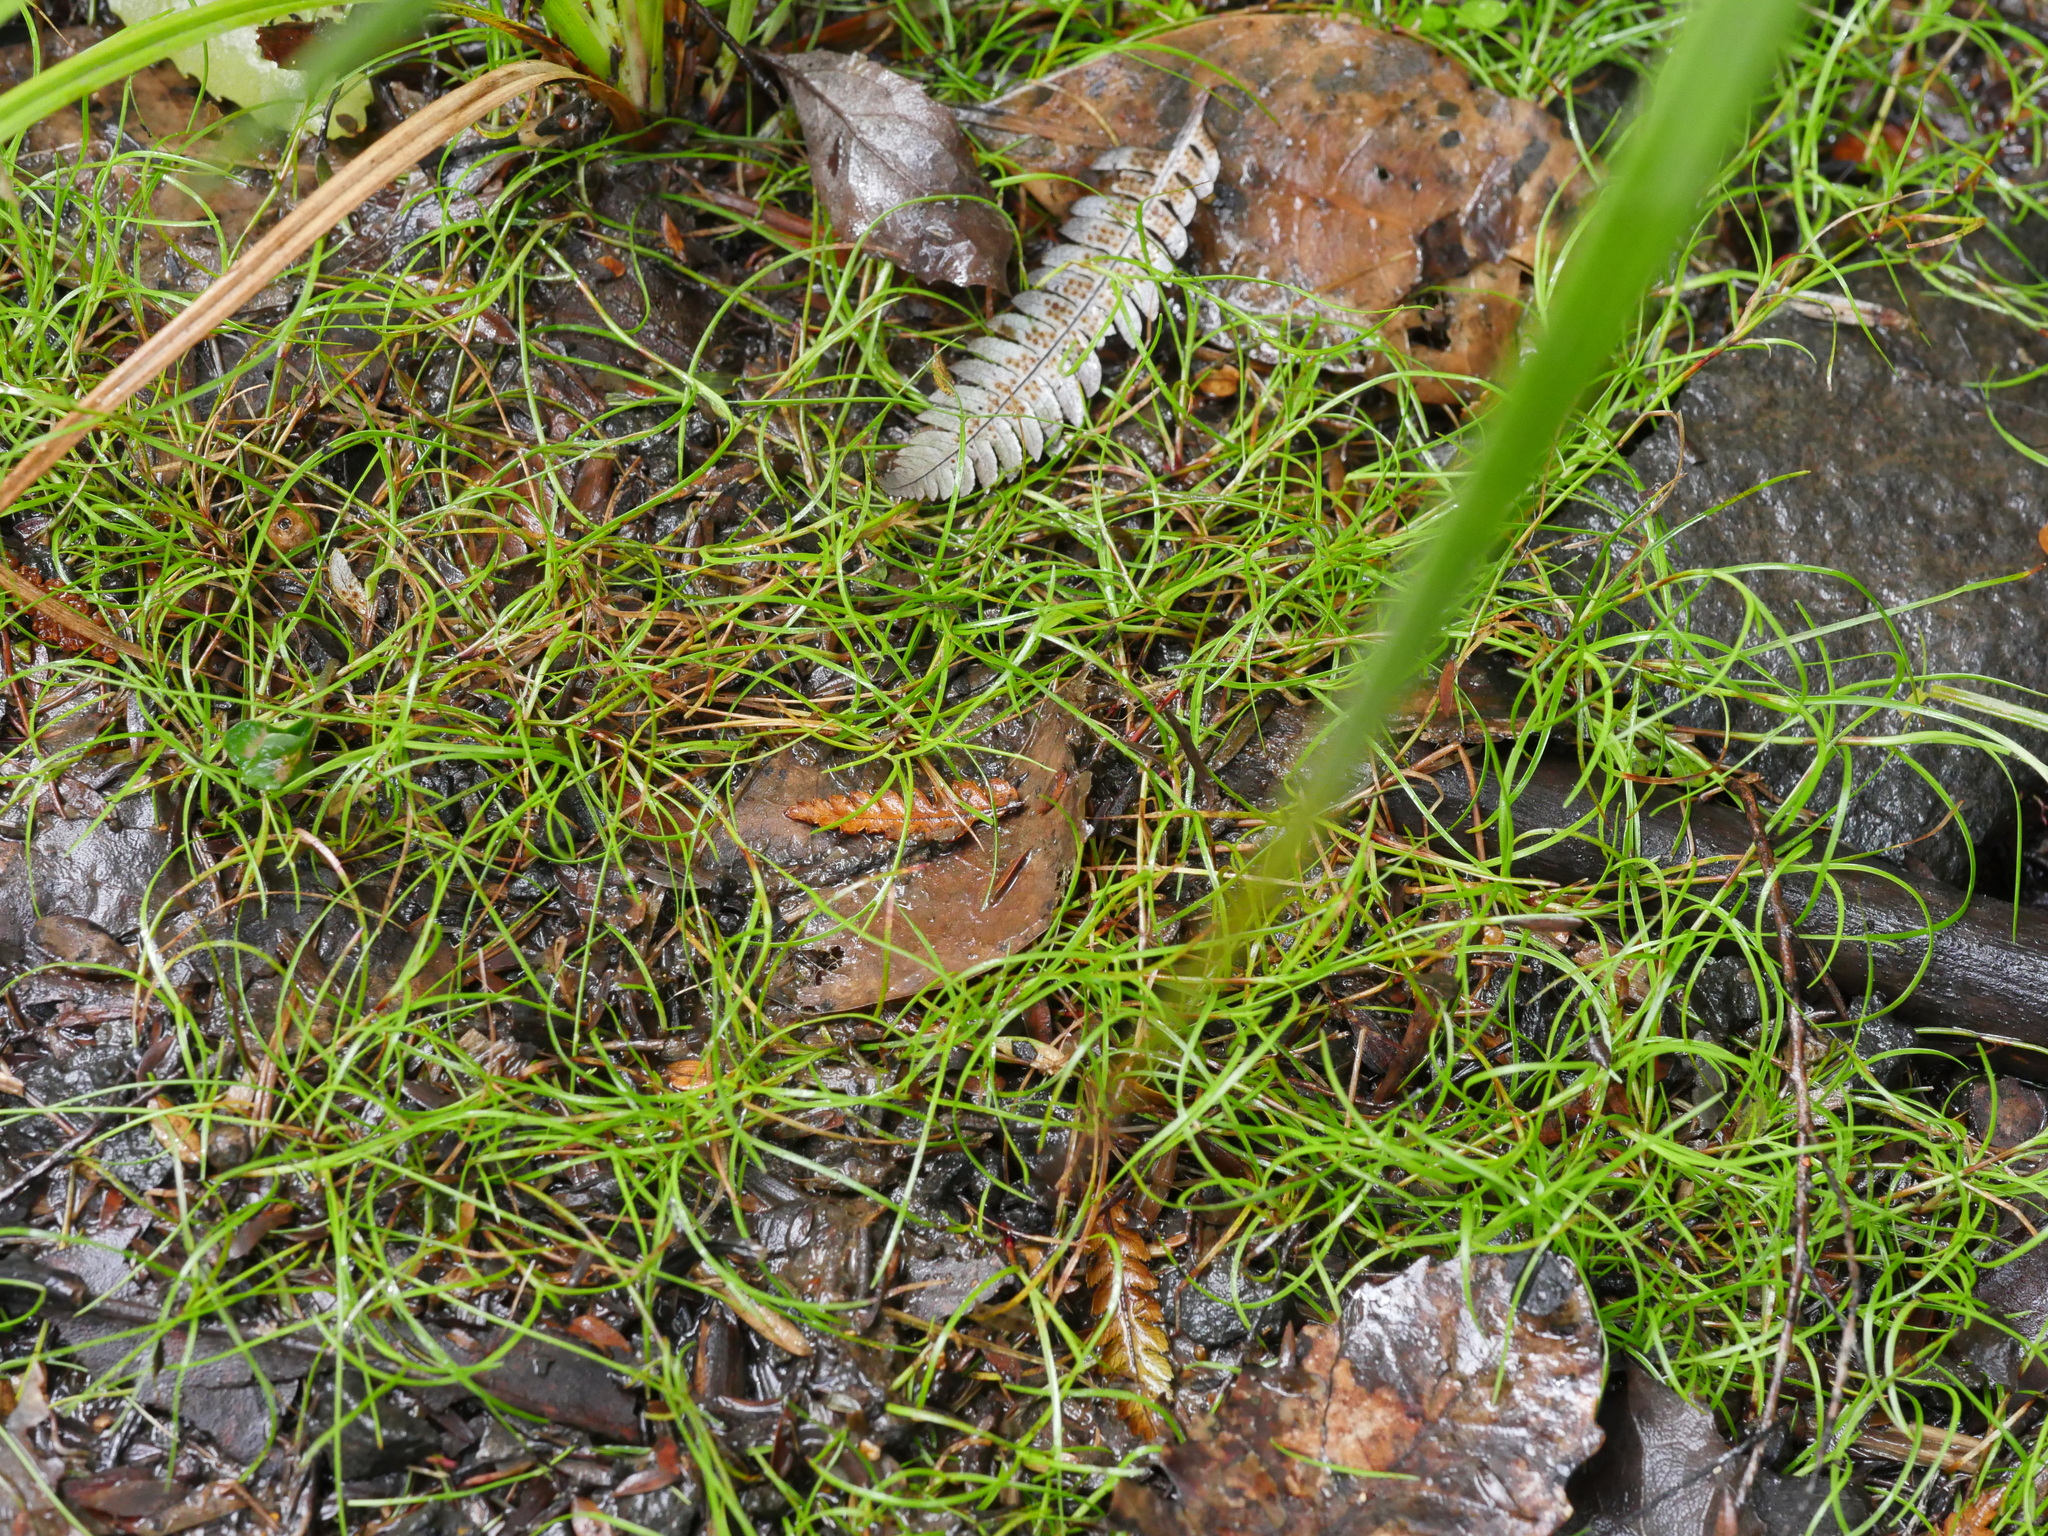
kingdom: Plantae
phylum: Tracheophyta
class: Liliopsida
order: Poales
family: Cyperaceae
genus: Schoenus
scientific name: Schoenus maschalinus
